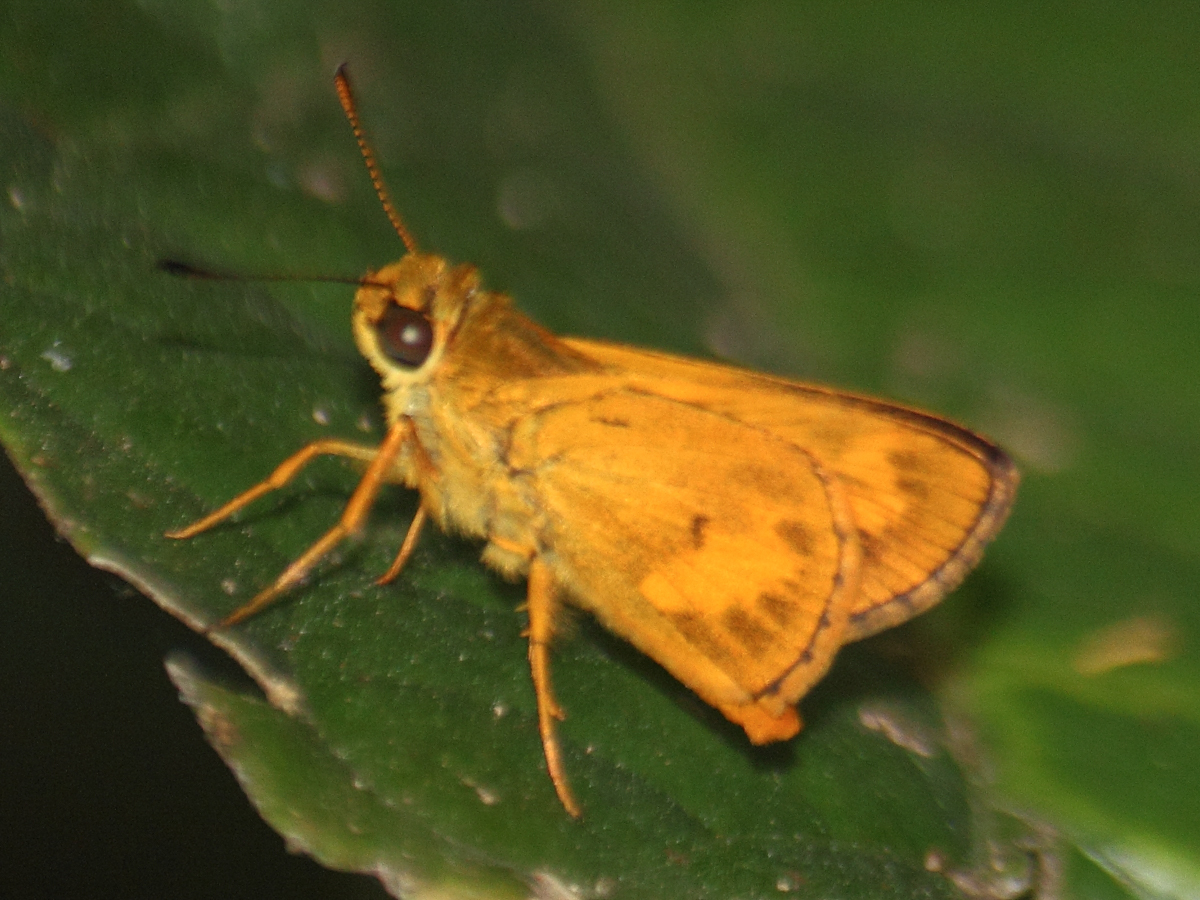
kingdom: Animalia
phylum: Arthropoda
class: Insecta
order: Lepidoptera
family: Hesperiidae
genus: Oriens
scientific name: Oriens gola
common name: Common dartlet
